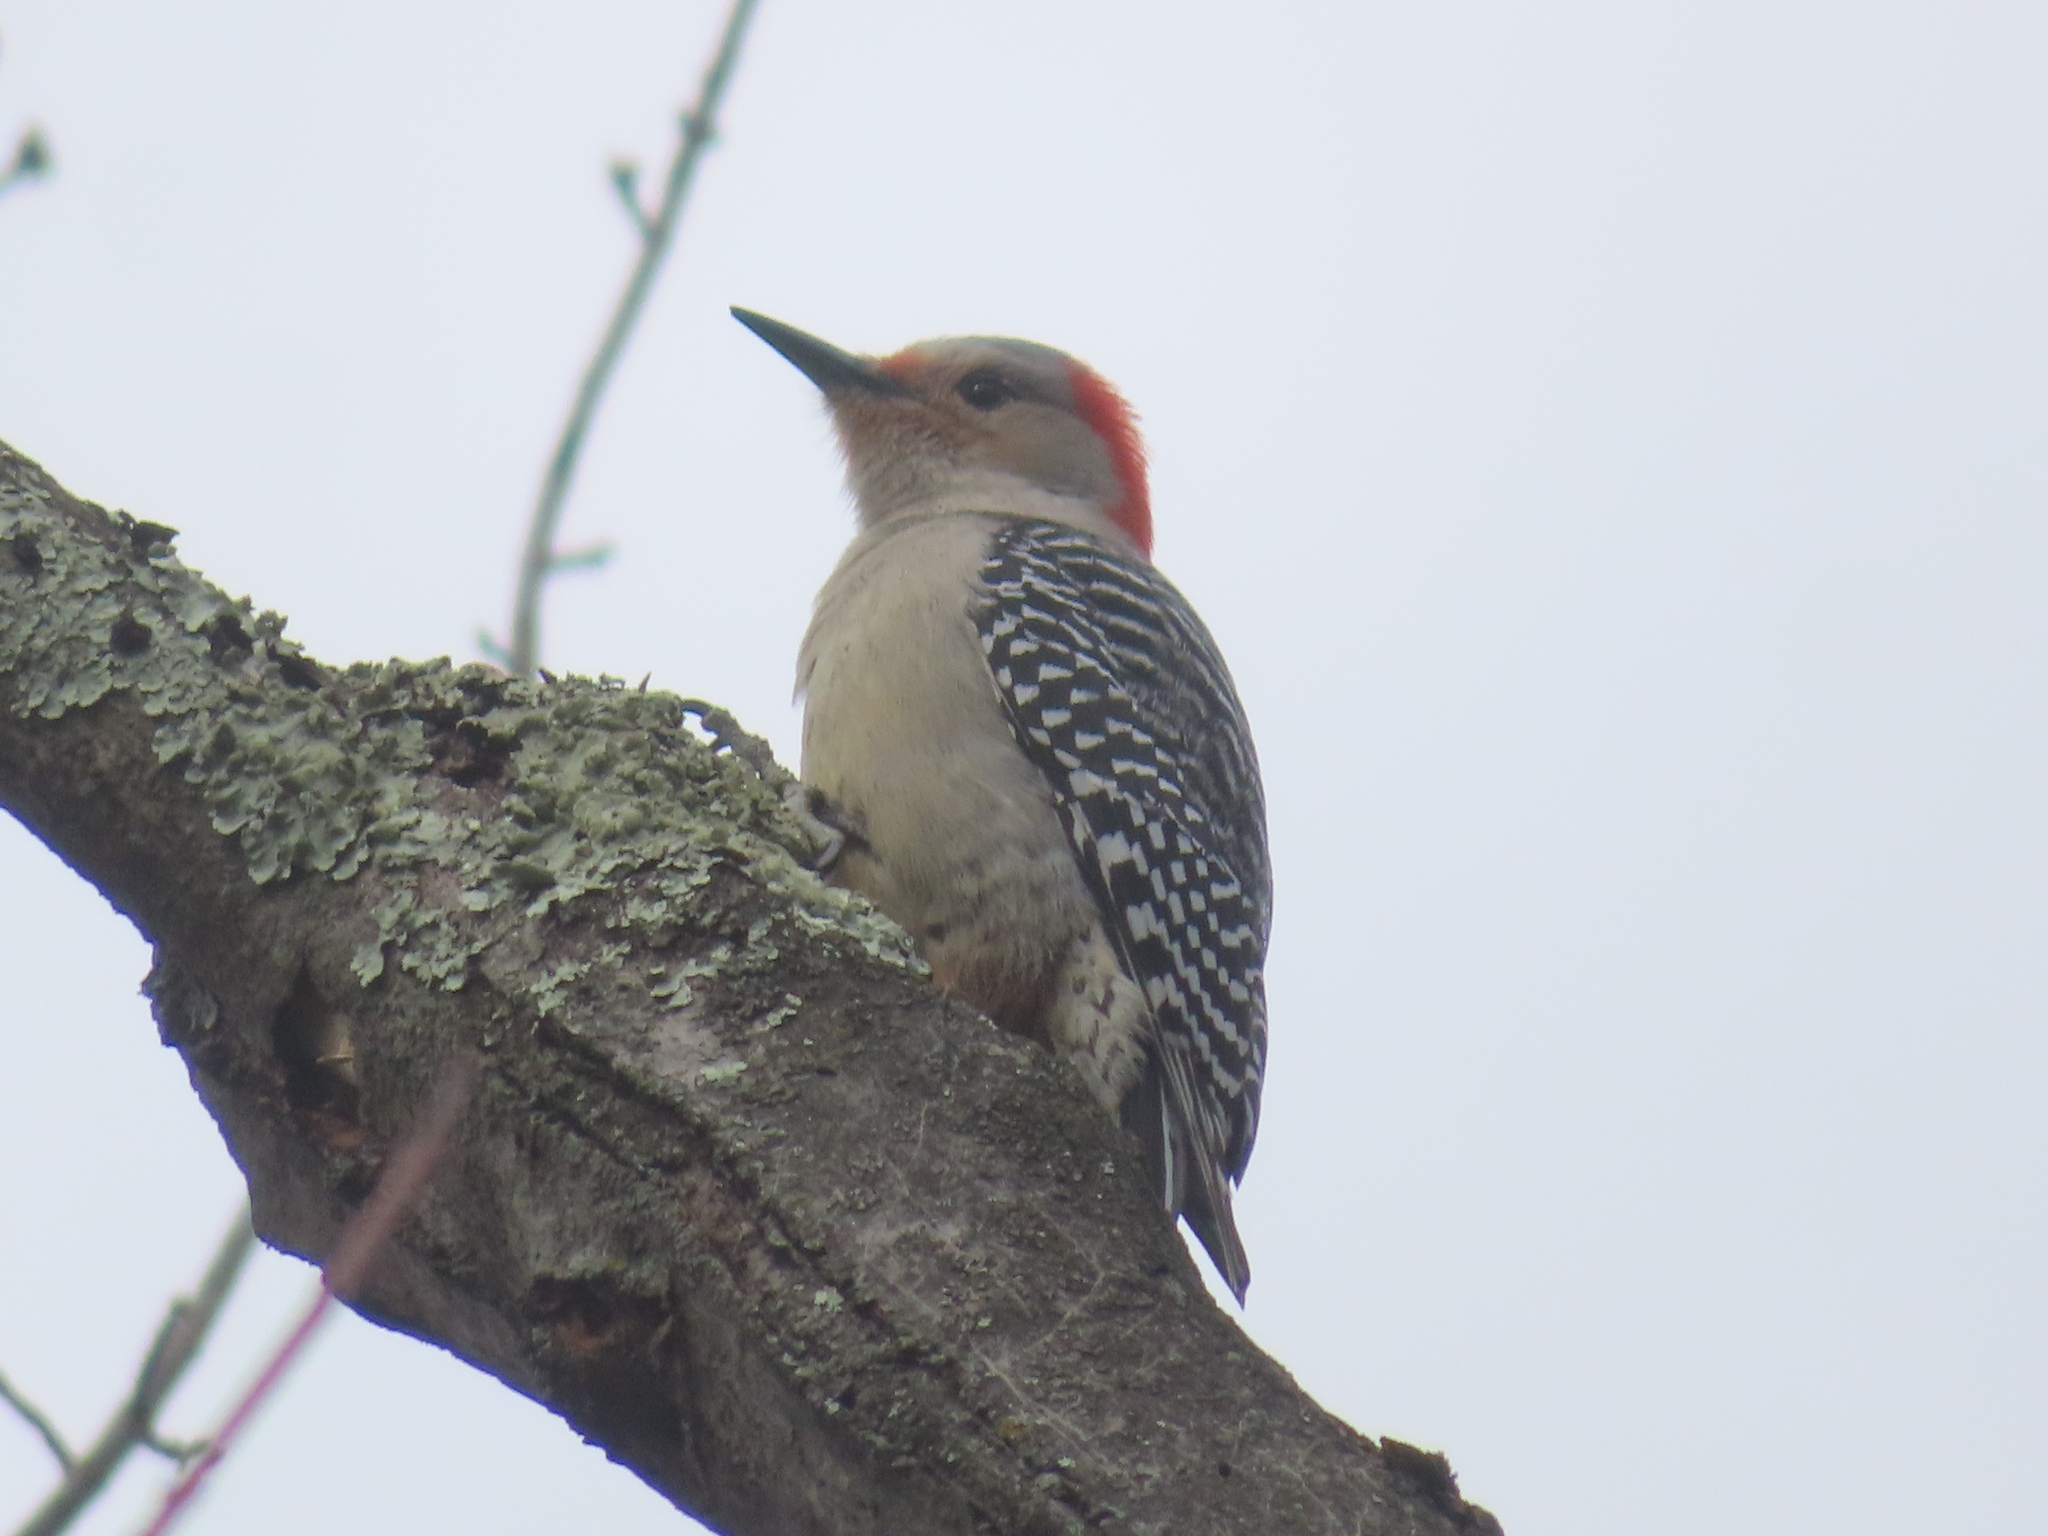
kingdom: Animalia
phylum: Chordata
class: Aves
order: Piciformes
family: Picidae
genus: Melanerpes
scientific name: Melanerpes carolinus
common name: Red-bellied woodpecker
